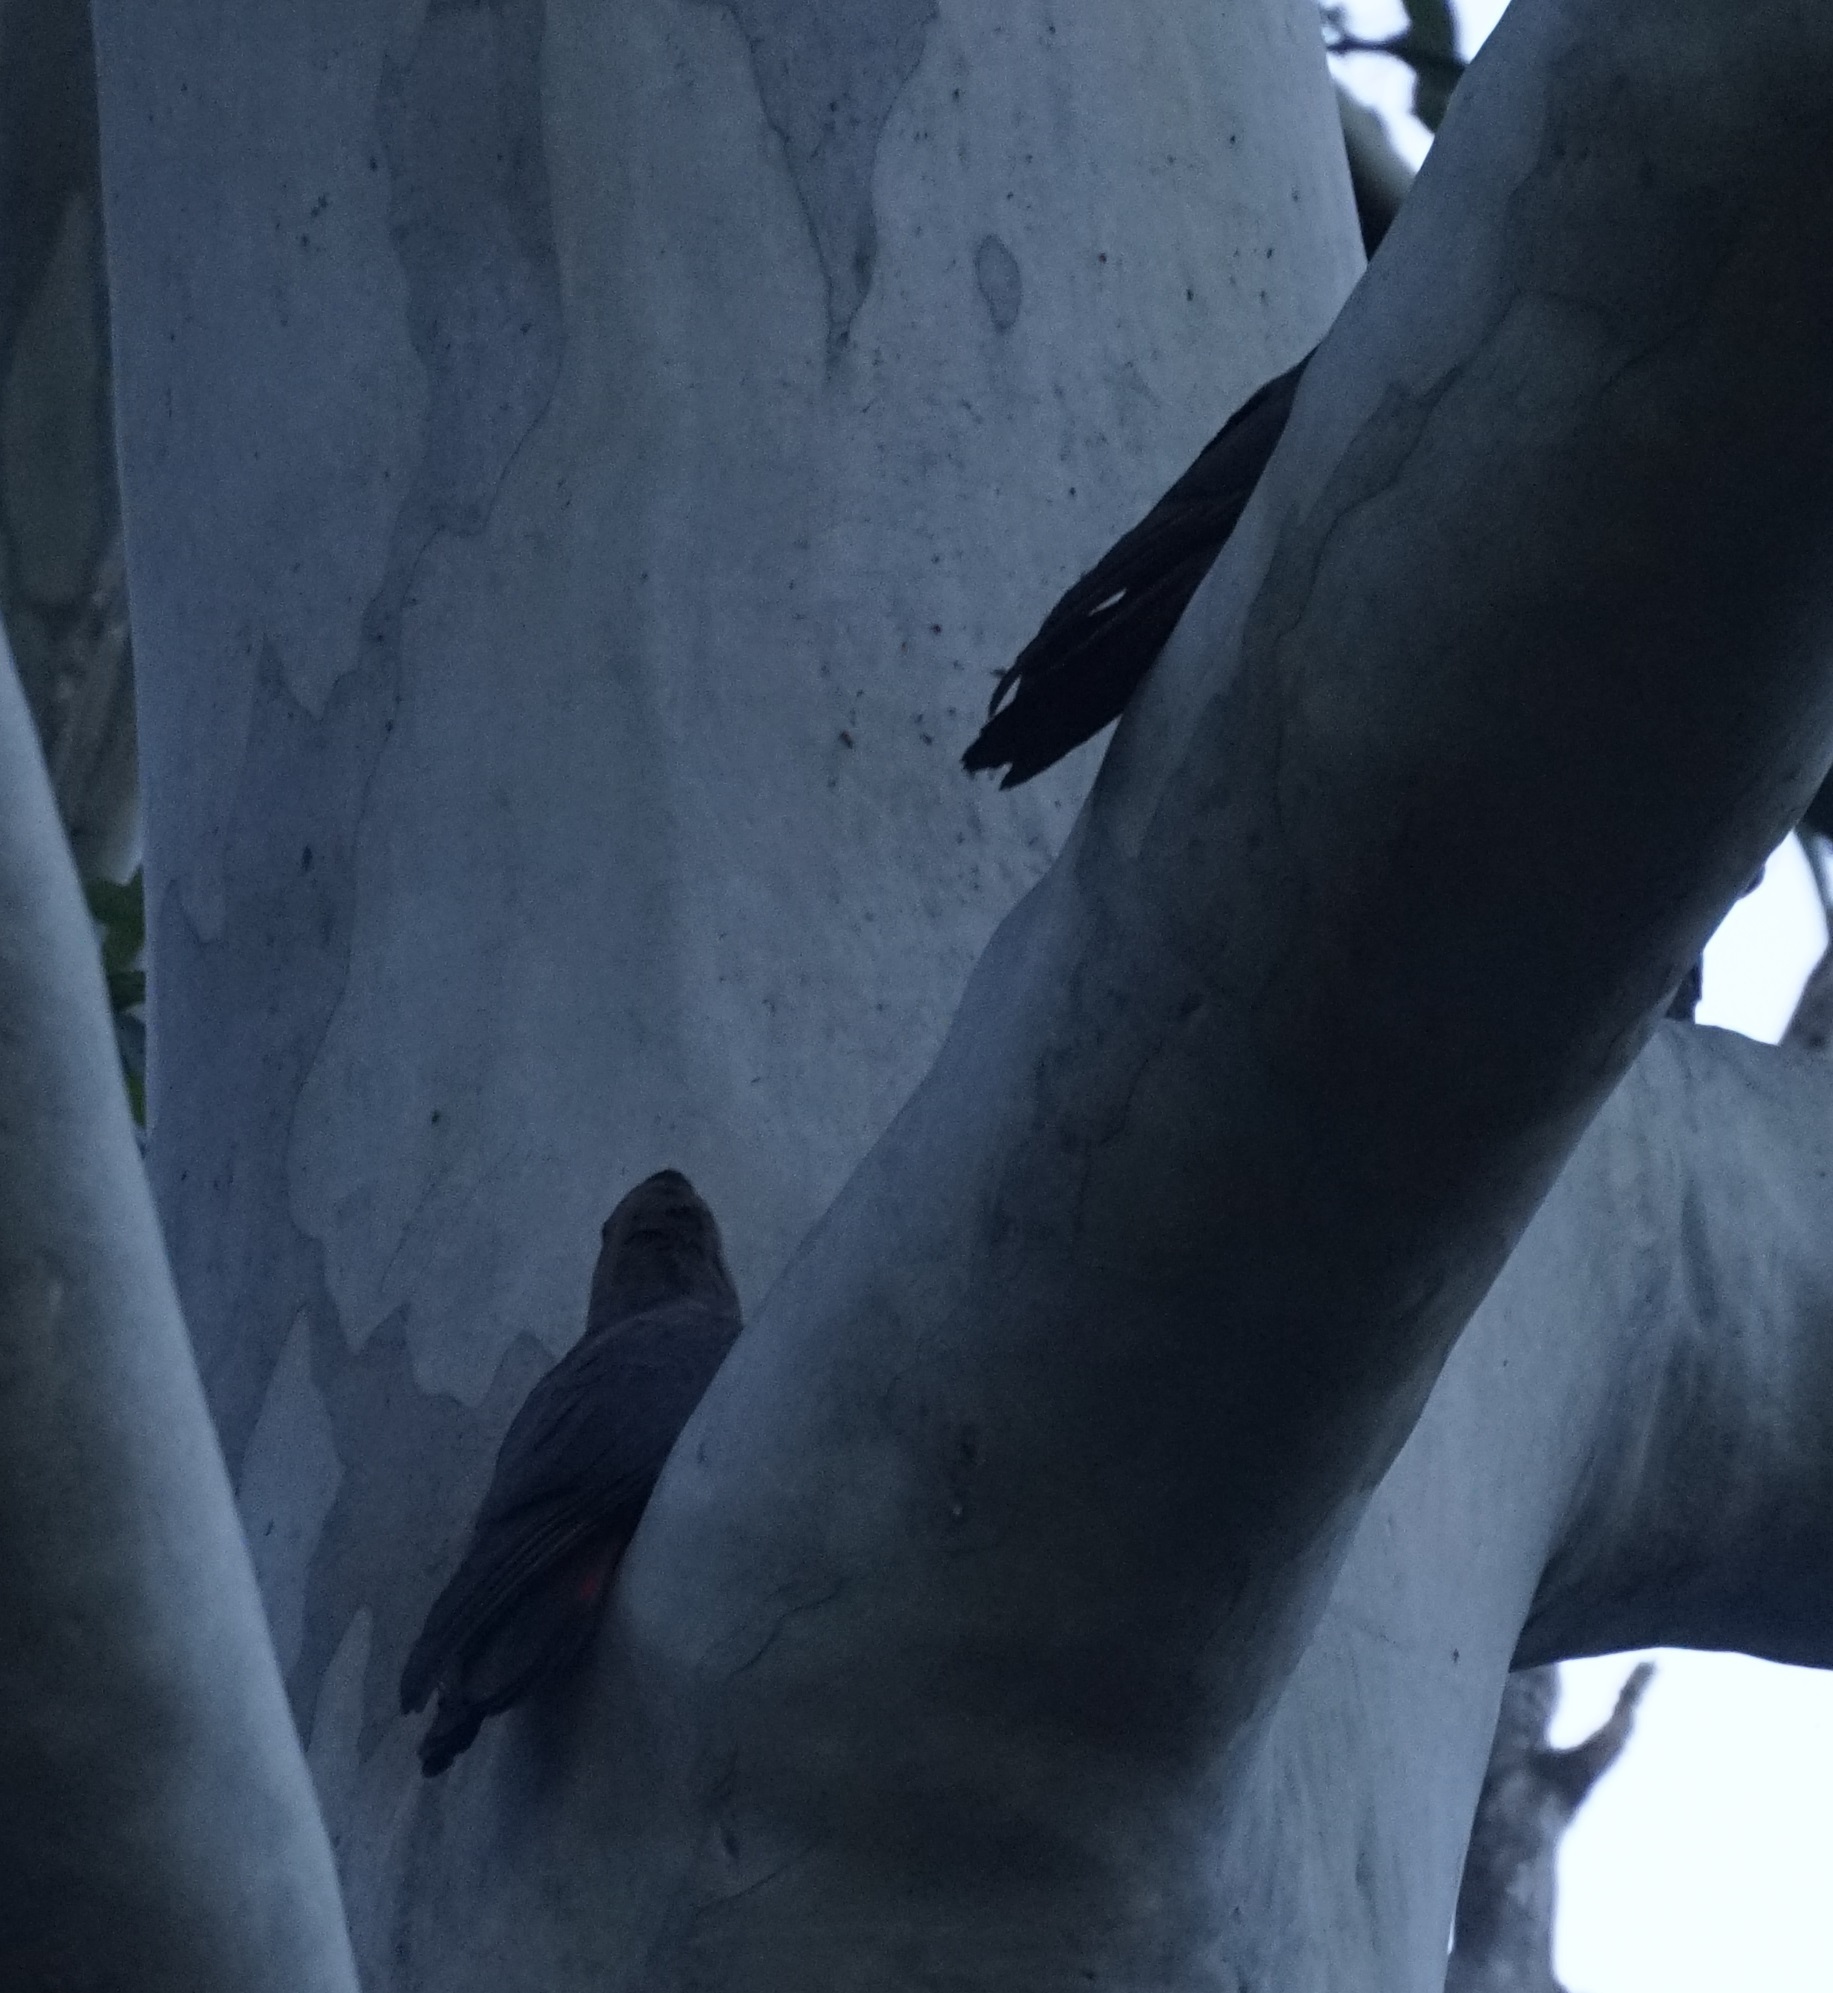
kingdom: Animalia
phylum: Chordata
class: Aves
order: Psittaciformes
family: Psittacidae
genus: Calyptorhynchus
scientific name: Calyptorhynchus lathami
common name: Glossy black cockatoo
